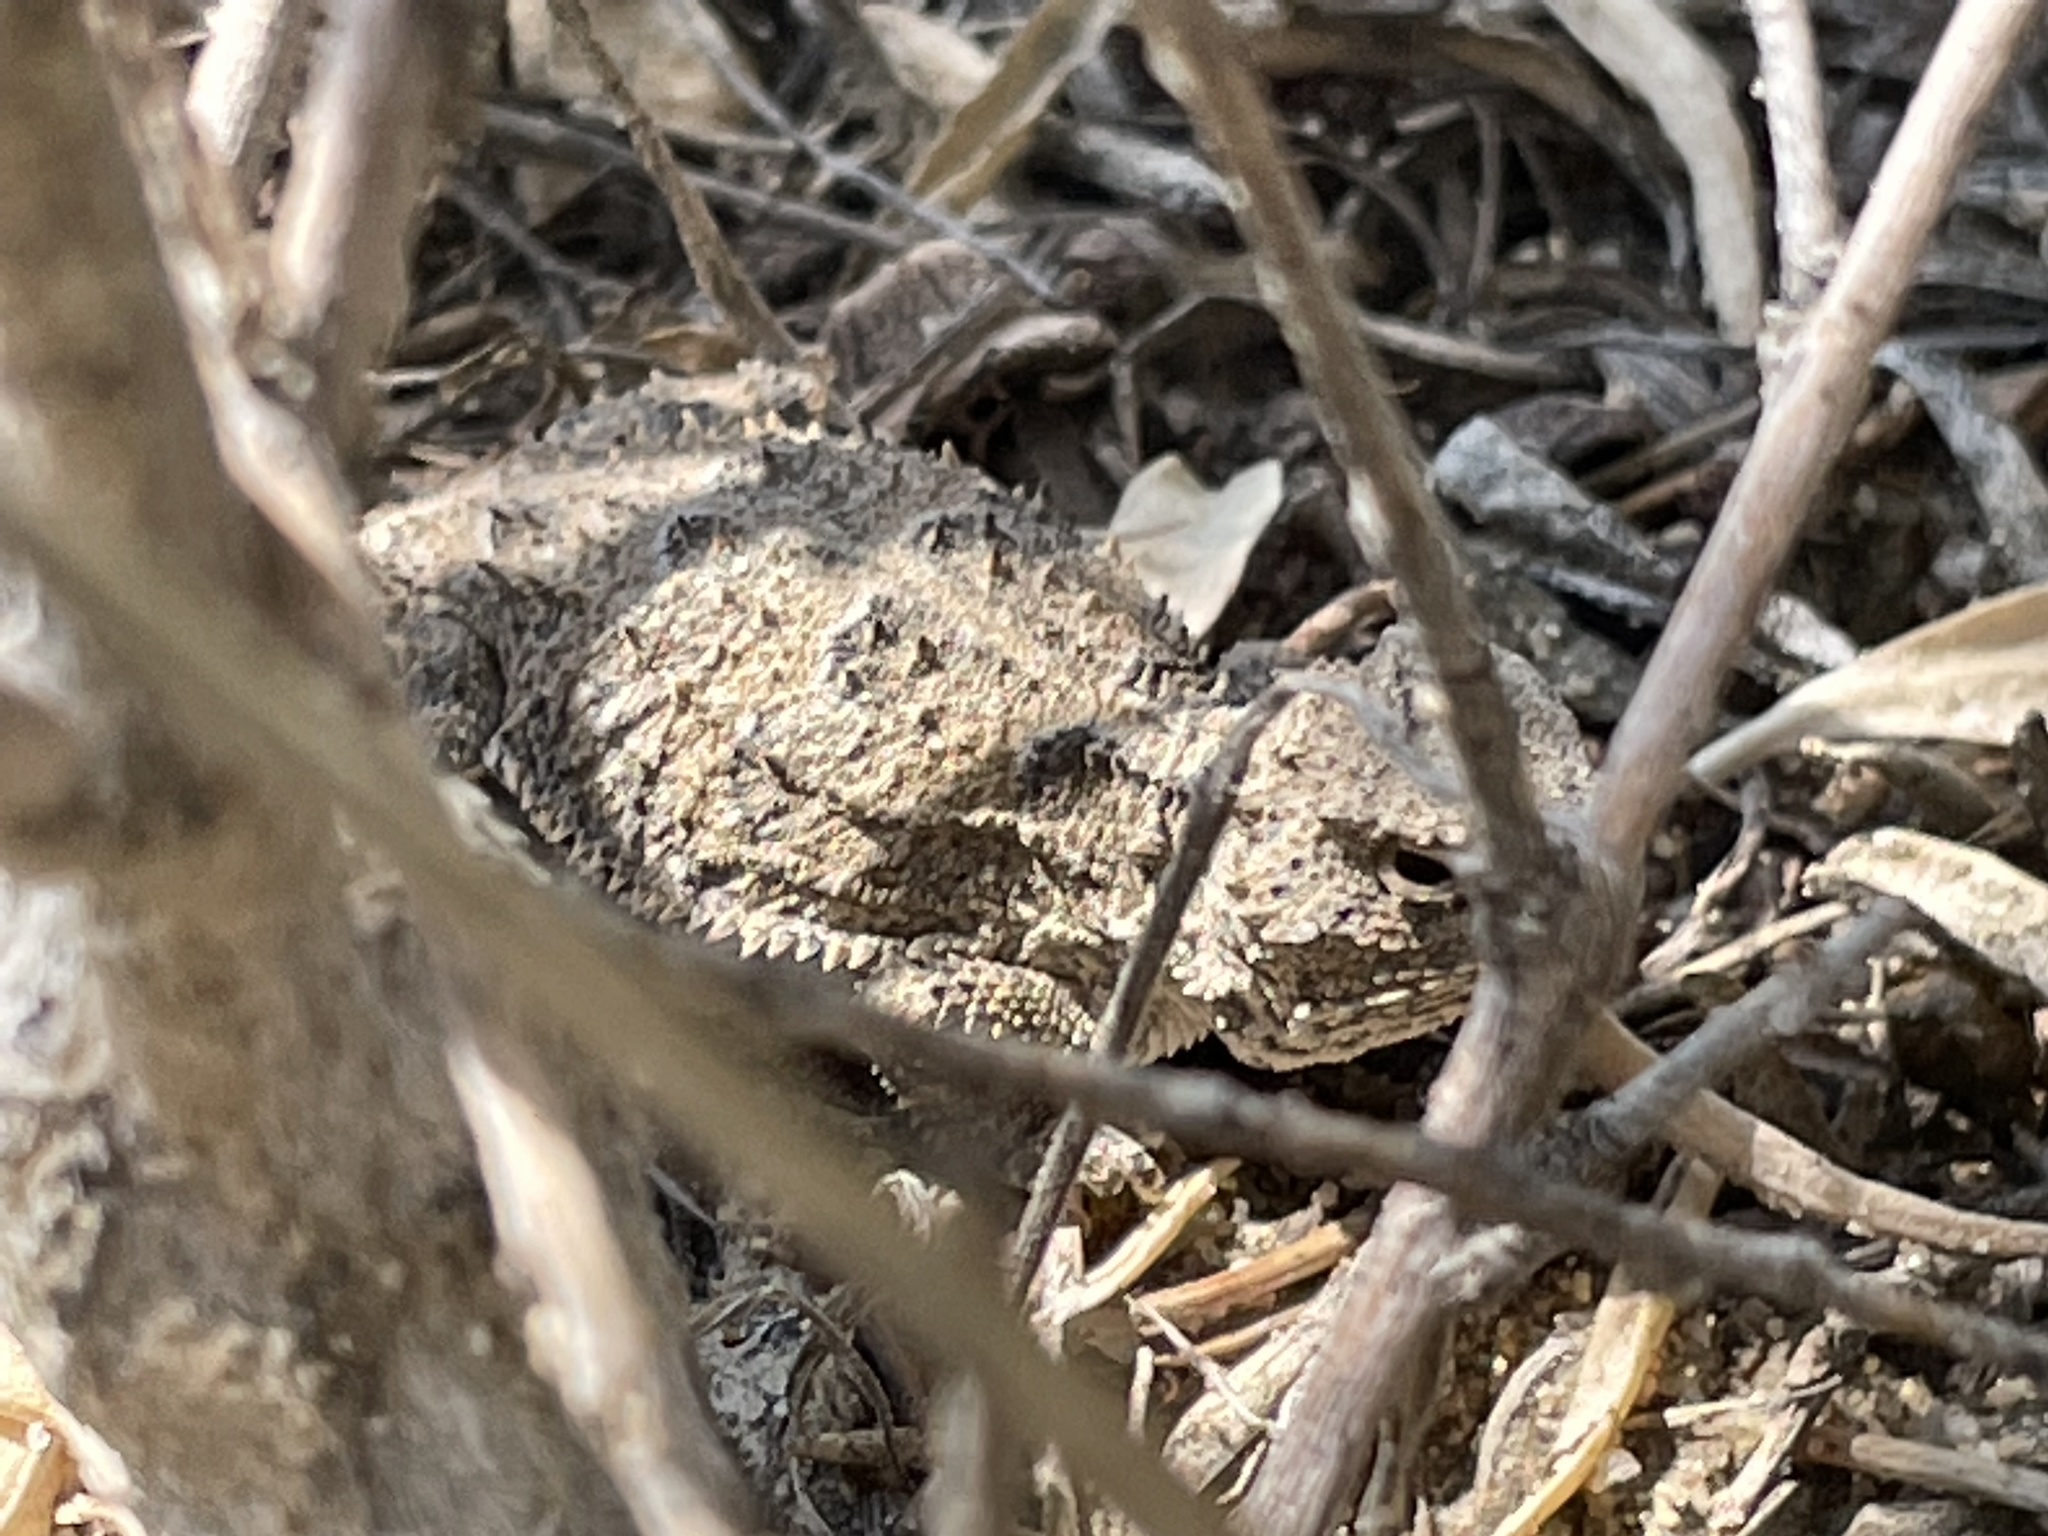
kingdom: Animalia
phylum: Chordata
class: Squamata
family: Phrynosomatidae
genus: Phrynosoma
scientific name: Phrynosoma hernandesi
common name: Greater short-horned lizard
